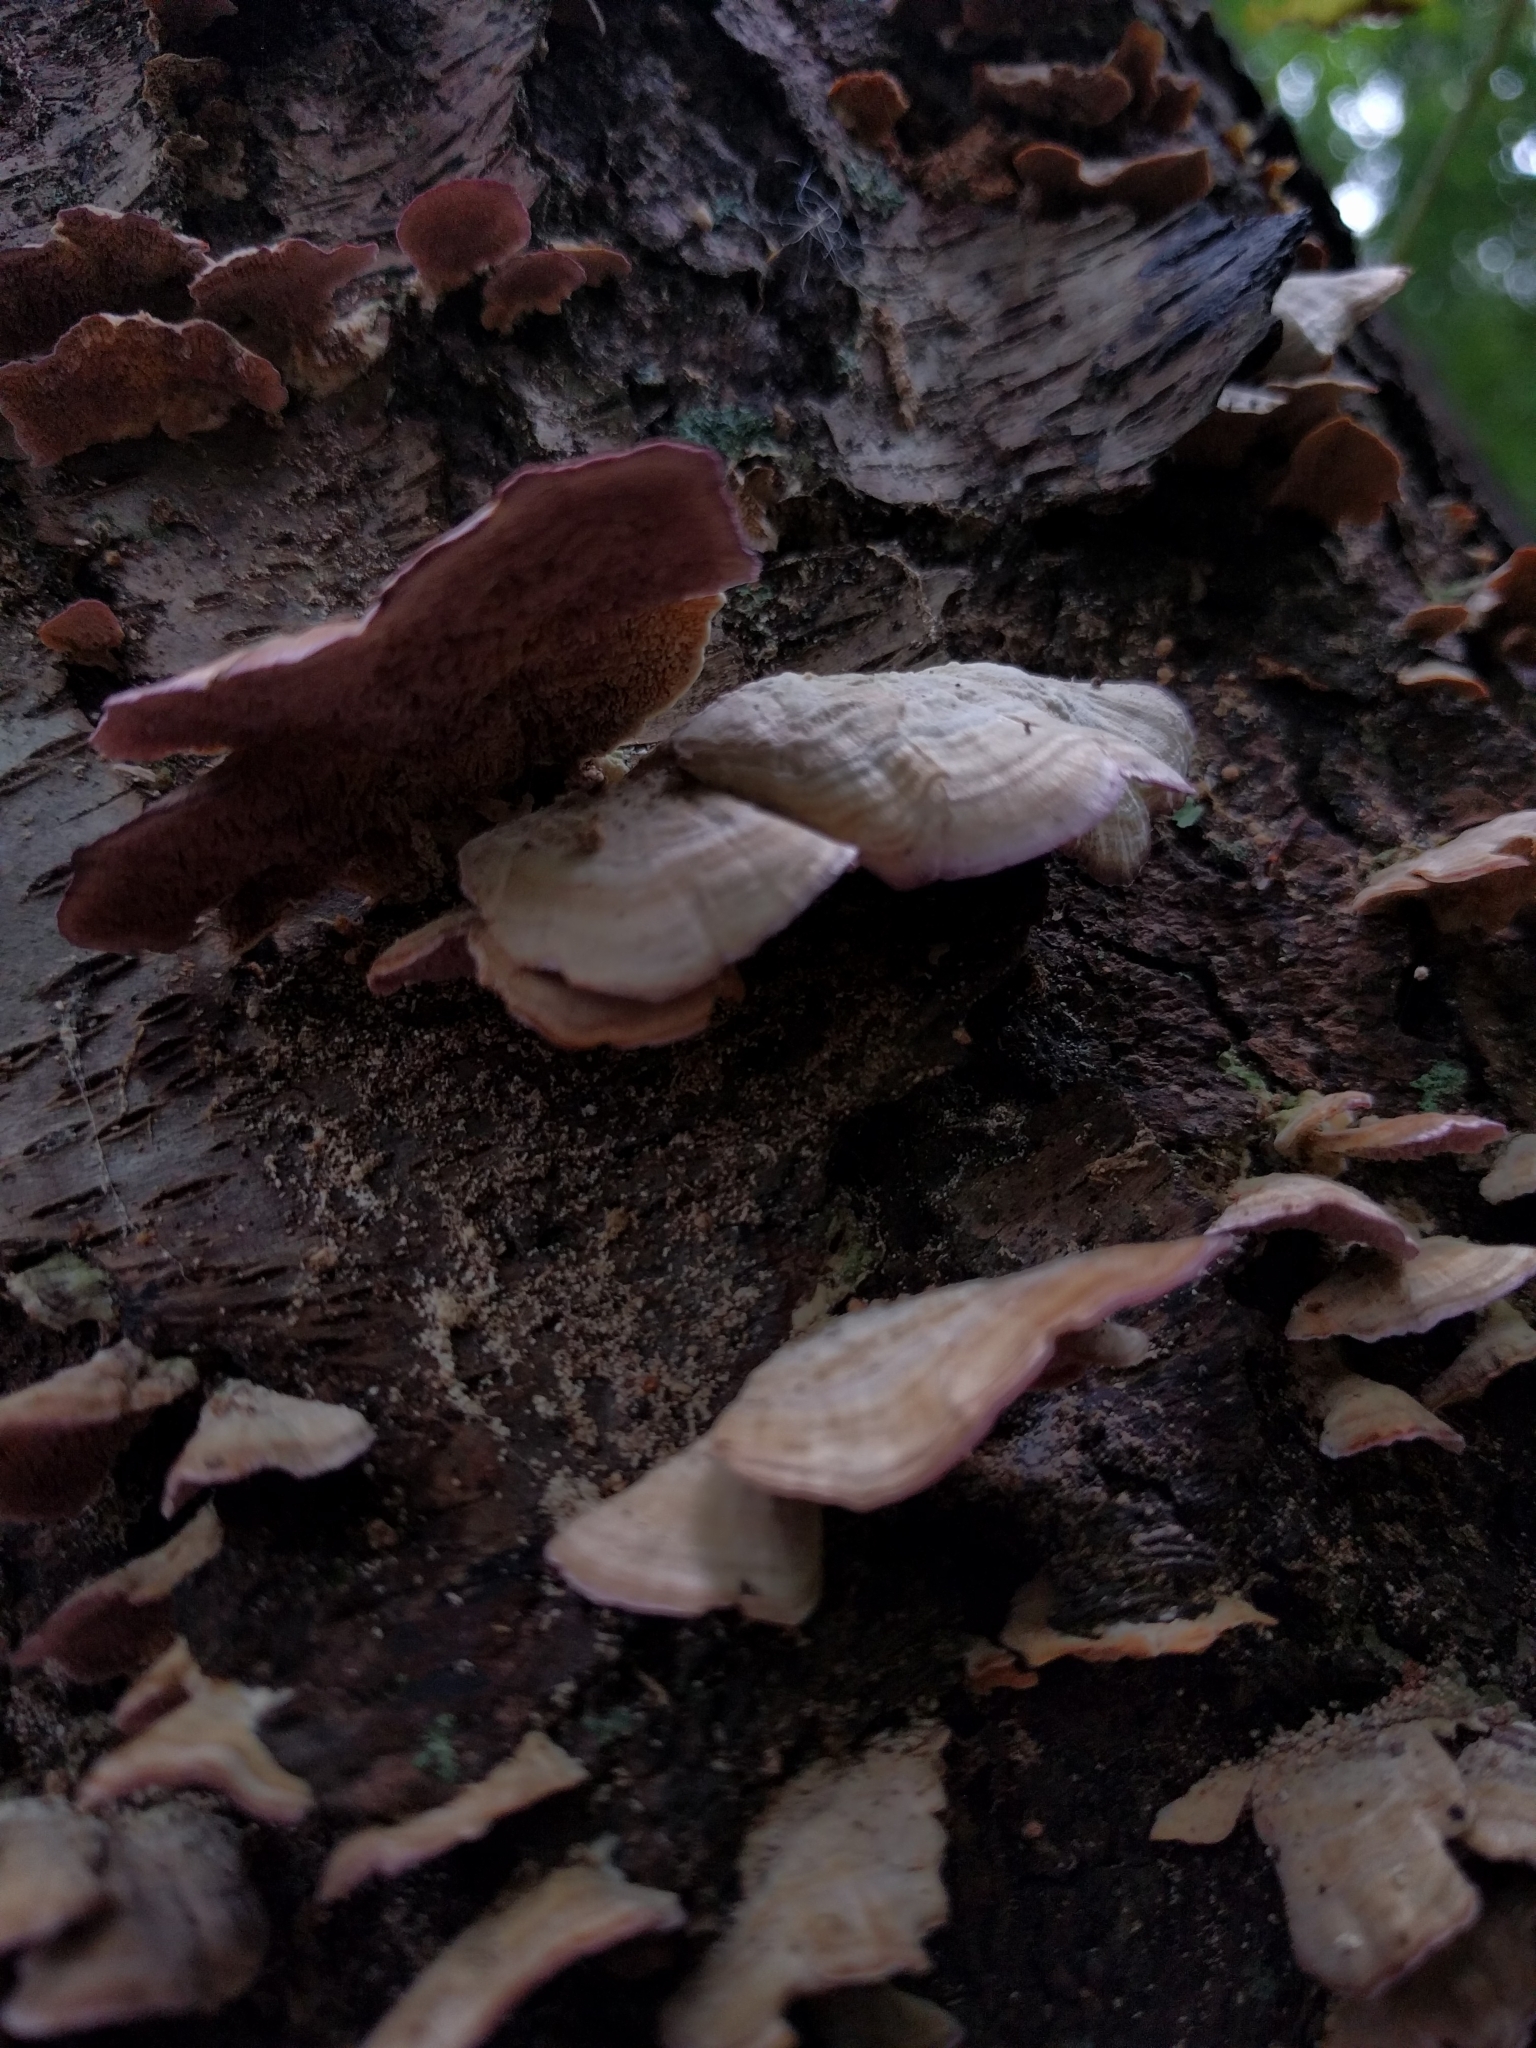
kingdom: Fungi
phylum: Basidiomycota
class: Agaricomycetes
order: Hymenochaetales
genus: Trichaptum
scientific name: Trichaptum biforme
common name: Violet-toothed polypore
